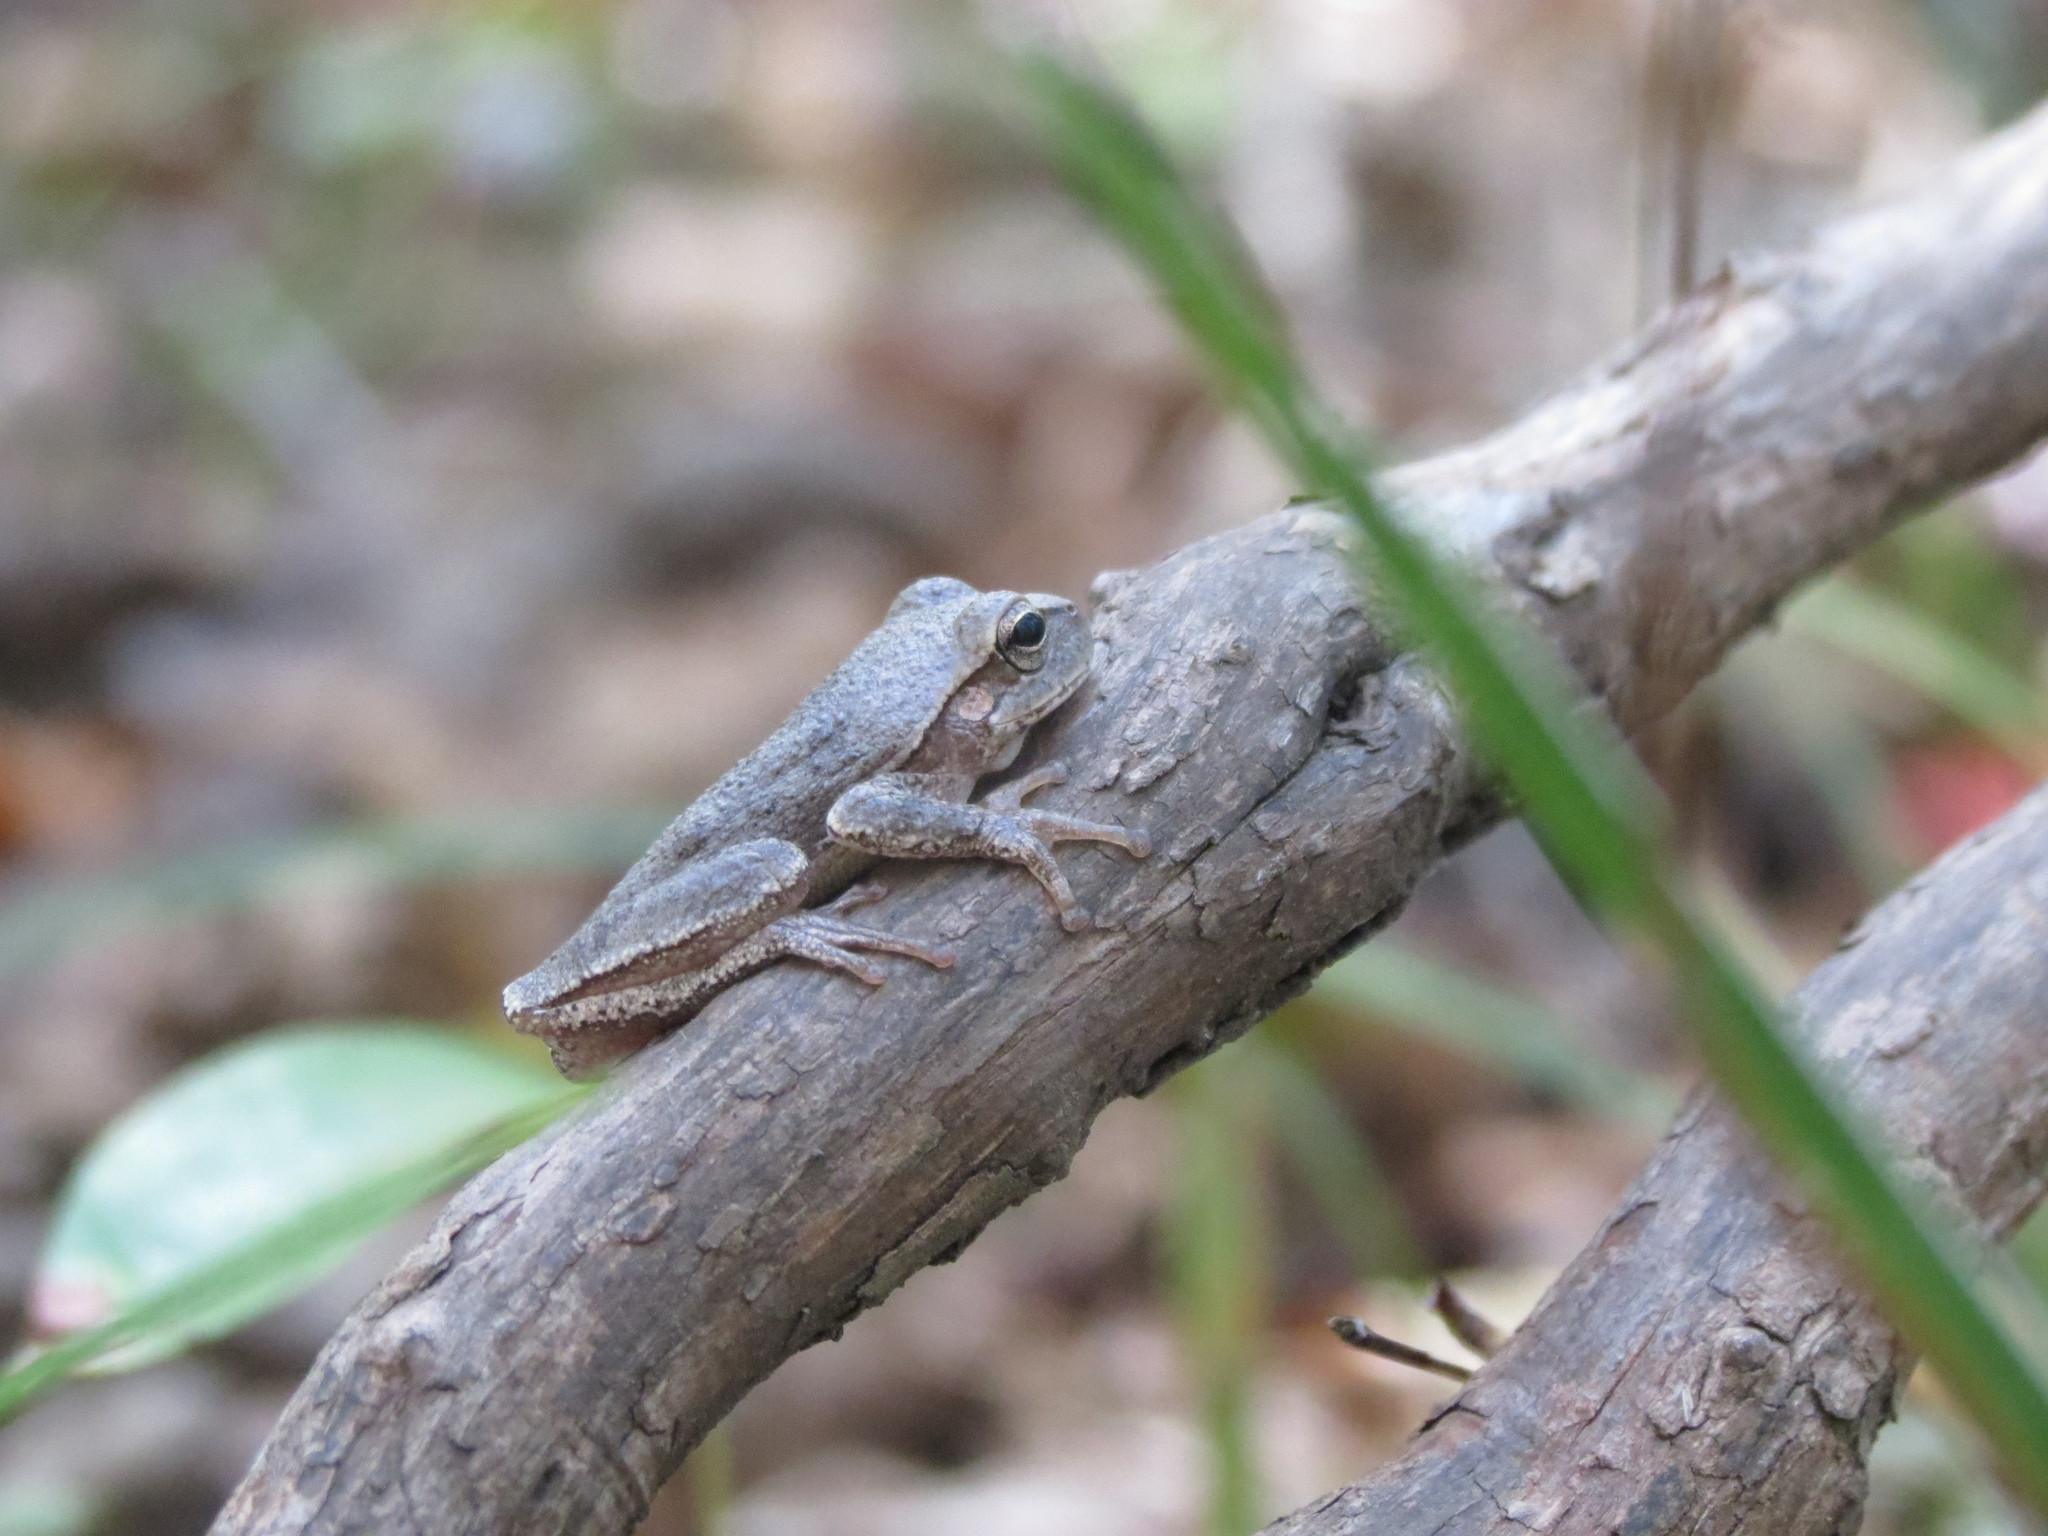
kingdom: Animalia
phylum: Chordata
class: Amphibia
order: Anura
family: Hylidae
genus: Hyla
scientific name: Hyla femoralis
